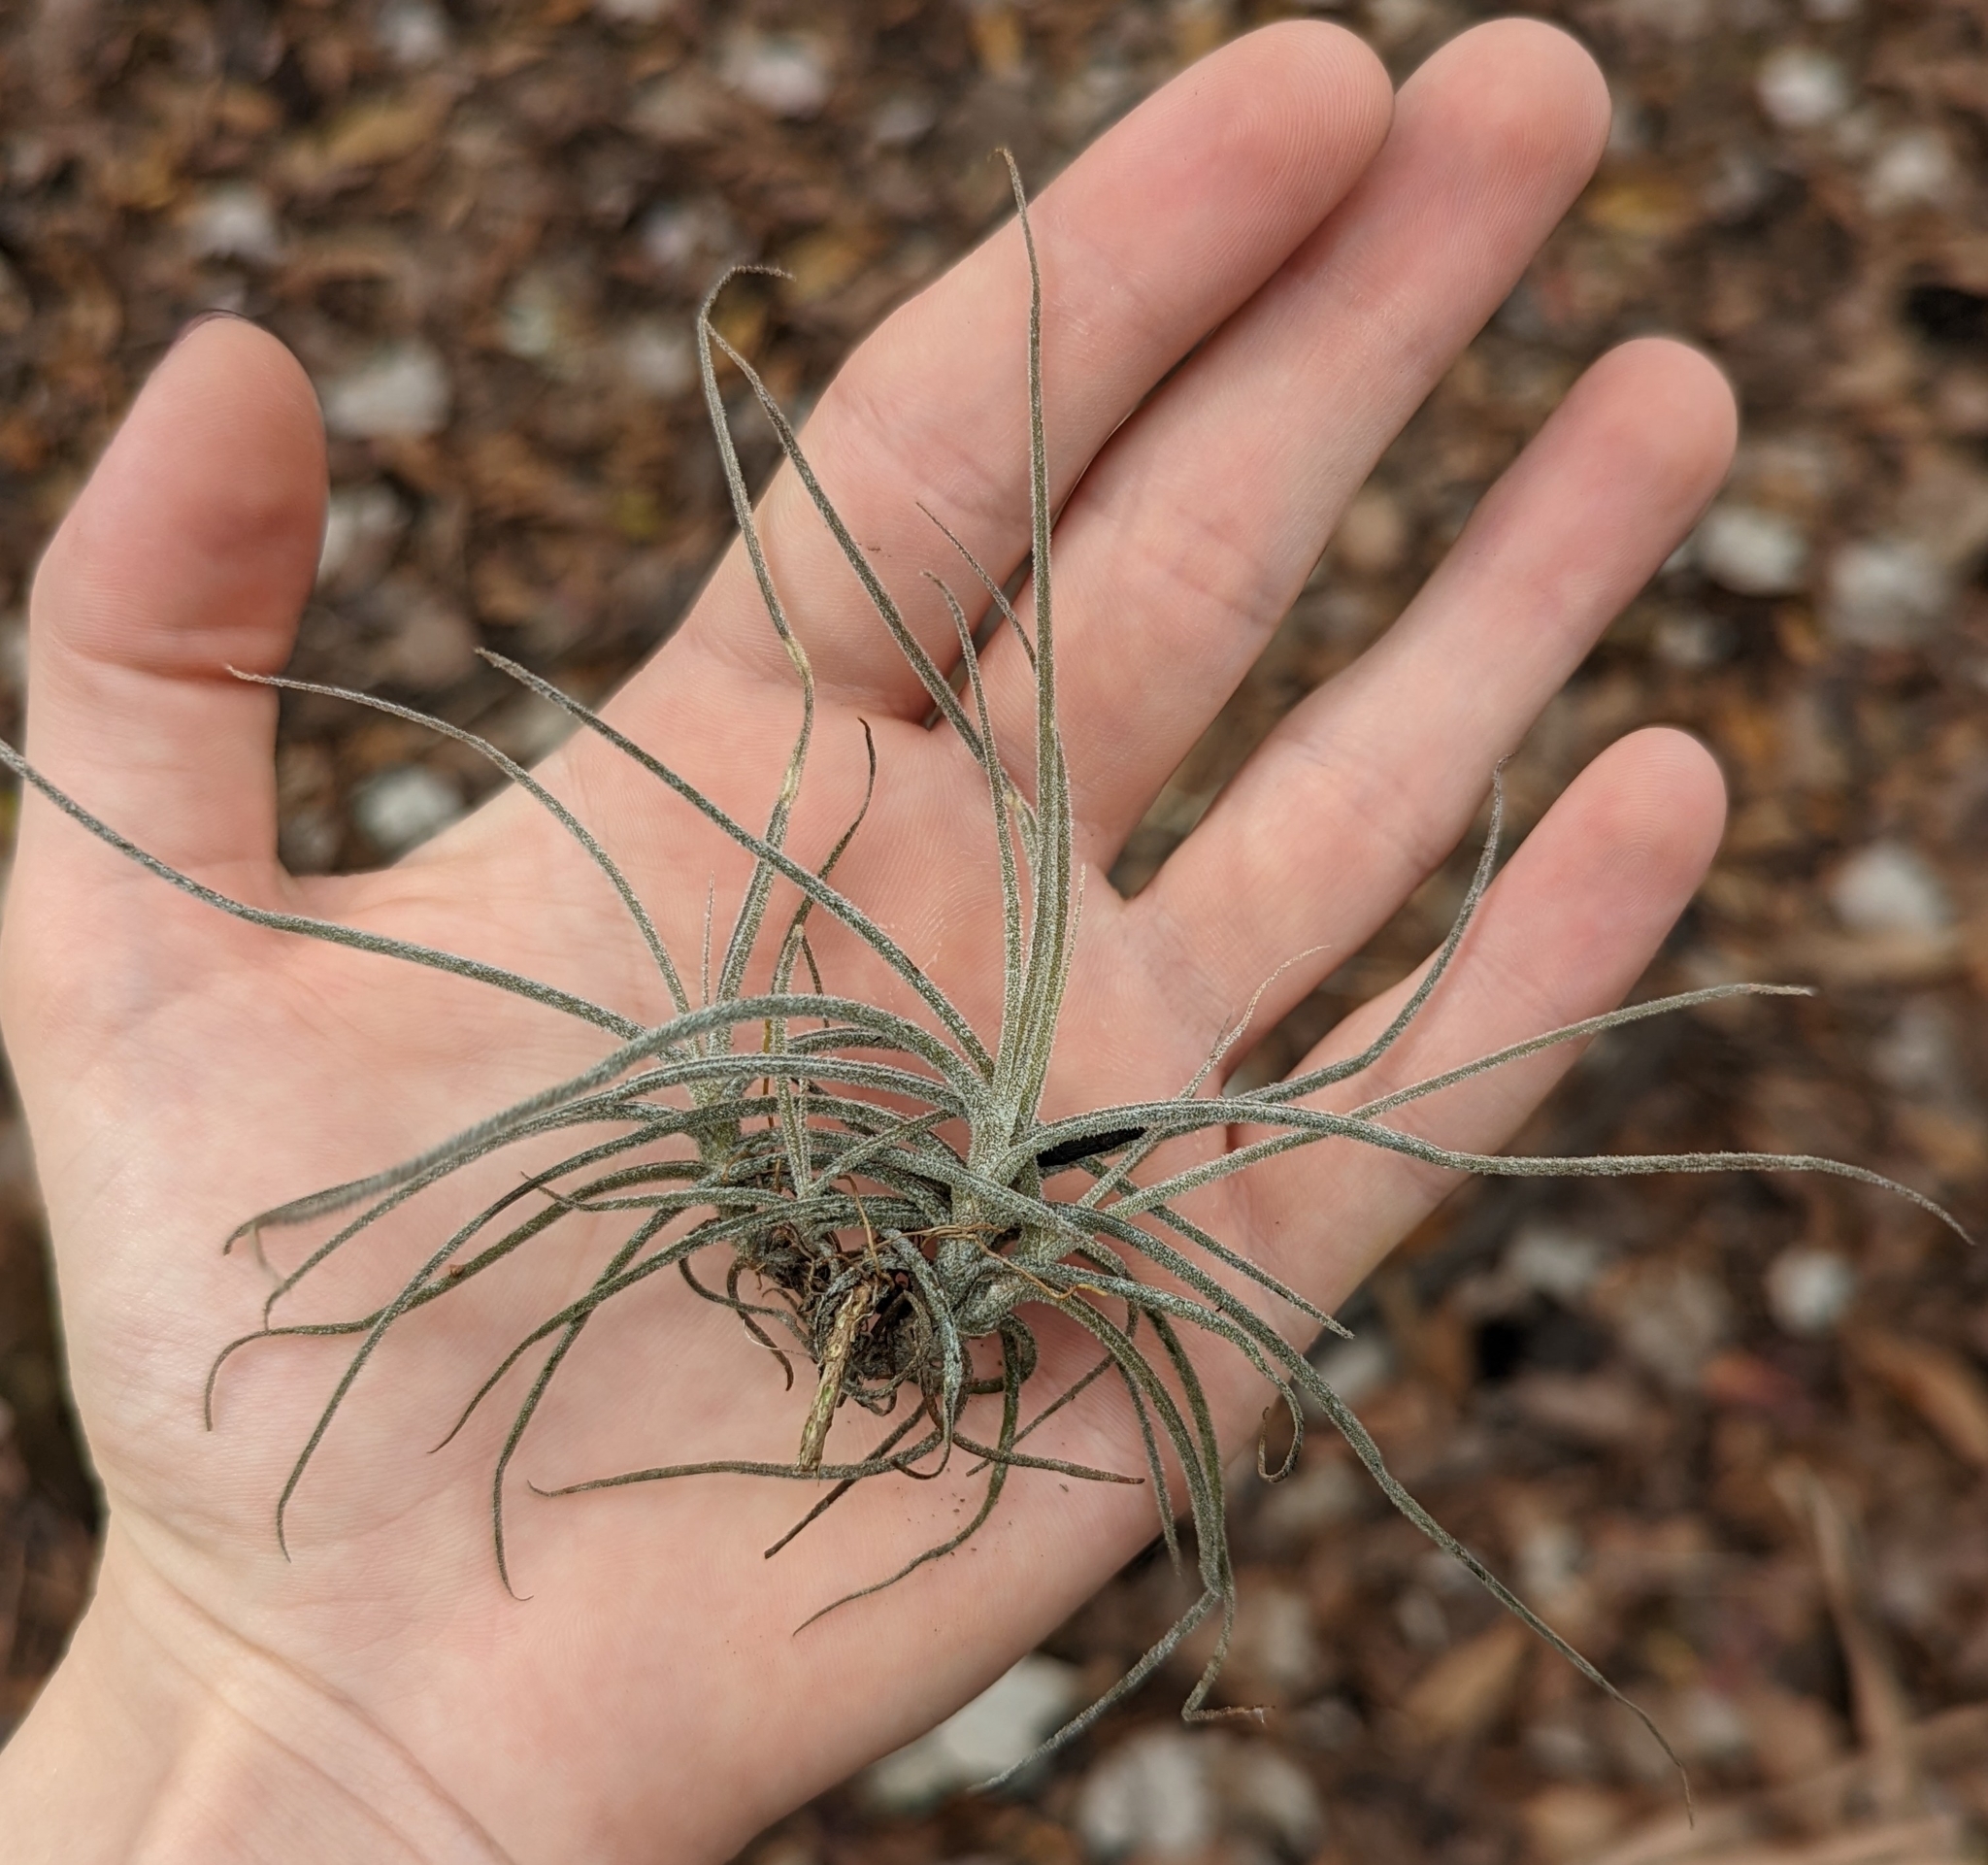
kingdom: Plantae
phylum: Tracheophyta
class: Liliopsida
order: Poales
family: Bromeliaceae
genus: Tillandsia
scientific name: Tillandsia recurvata
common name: Small ballmoss
